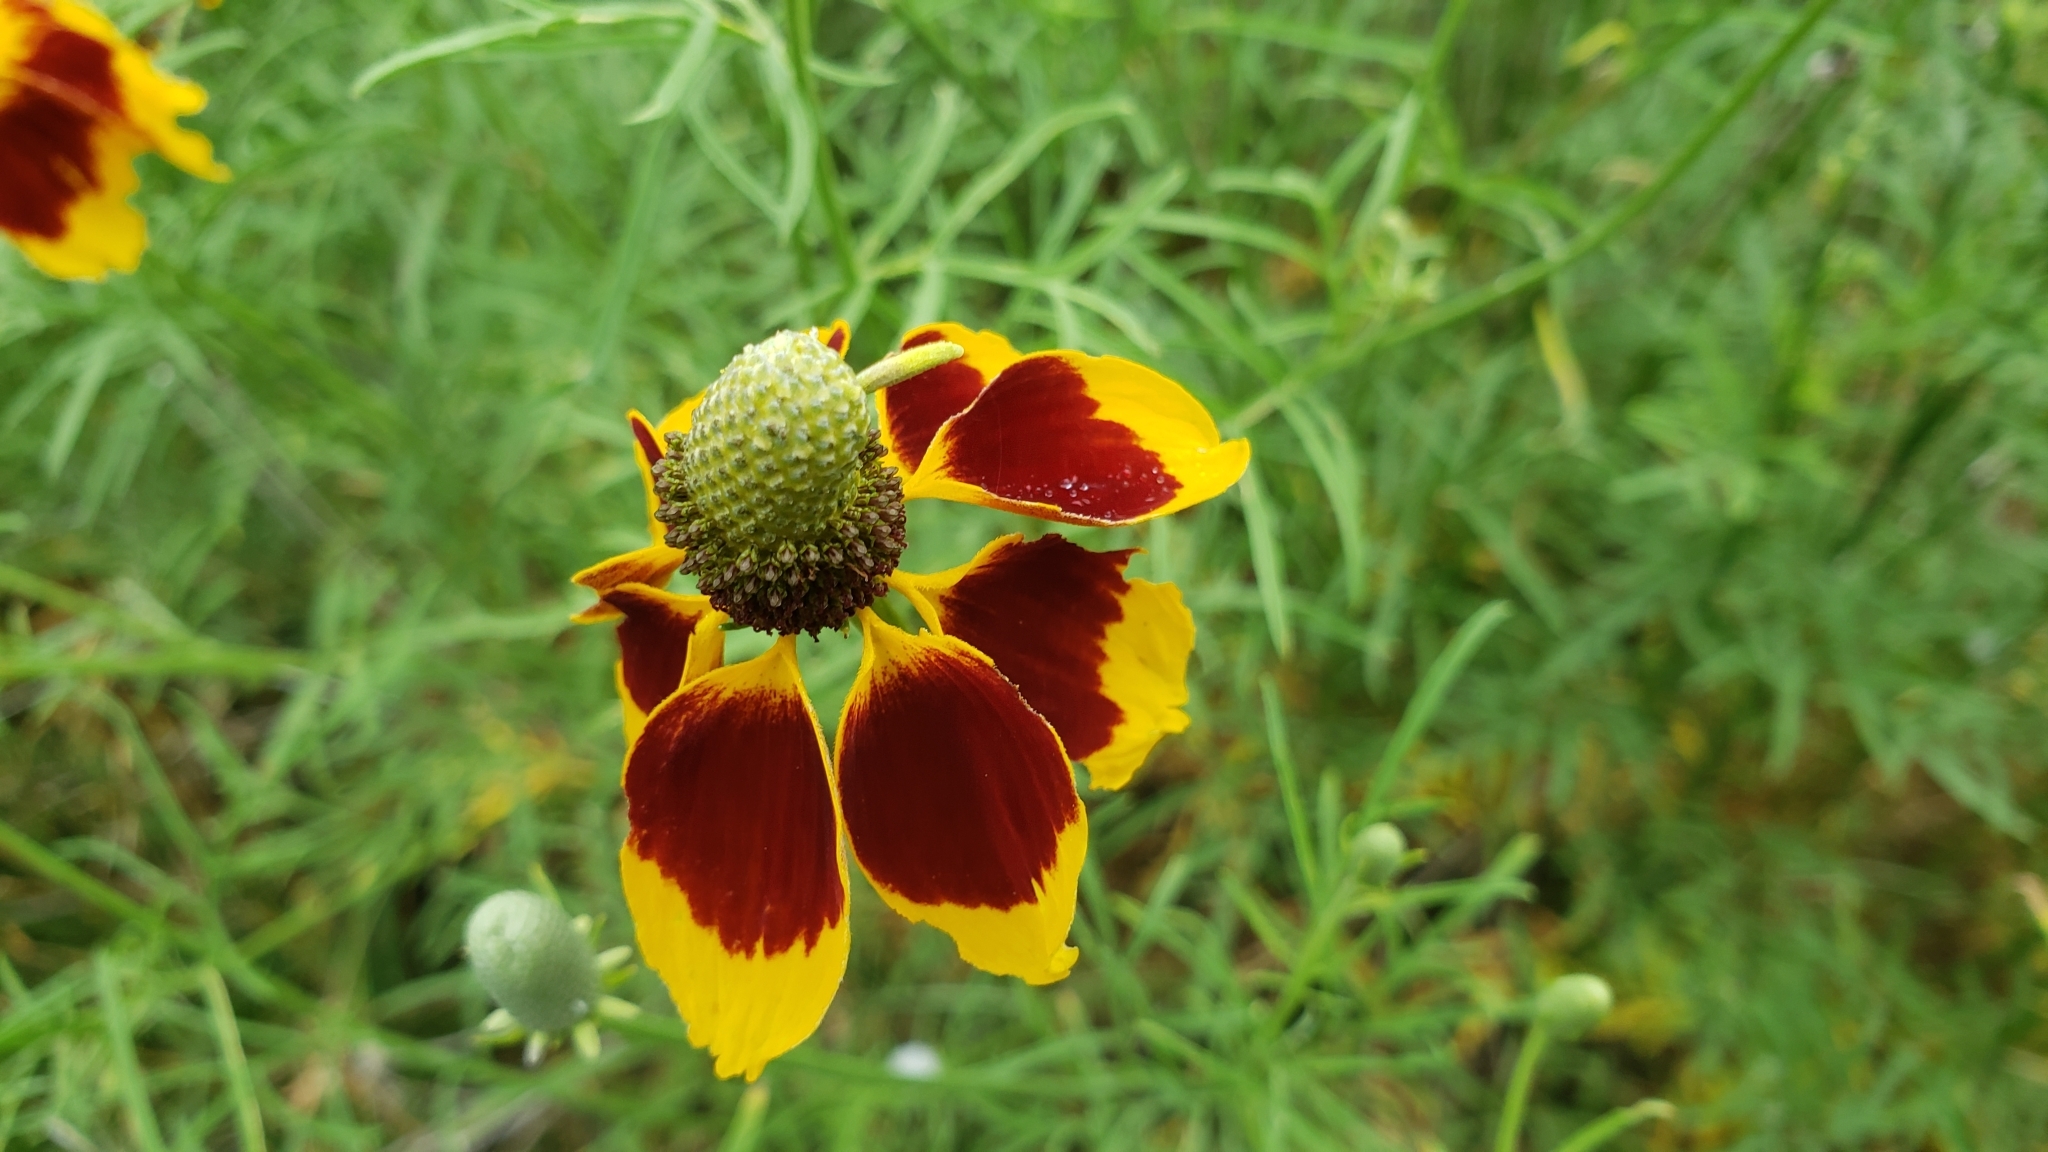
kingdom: Plantae
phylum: Tracheophyta
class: Magnoliopsida
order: Asterales
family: Asteraceae
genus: Ratibida
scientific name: Ratibida columnifera
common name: Prairie coneflower
